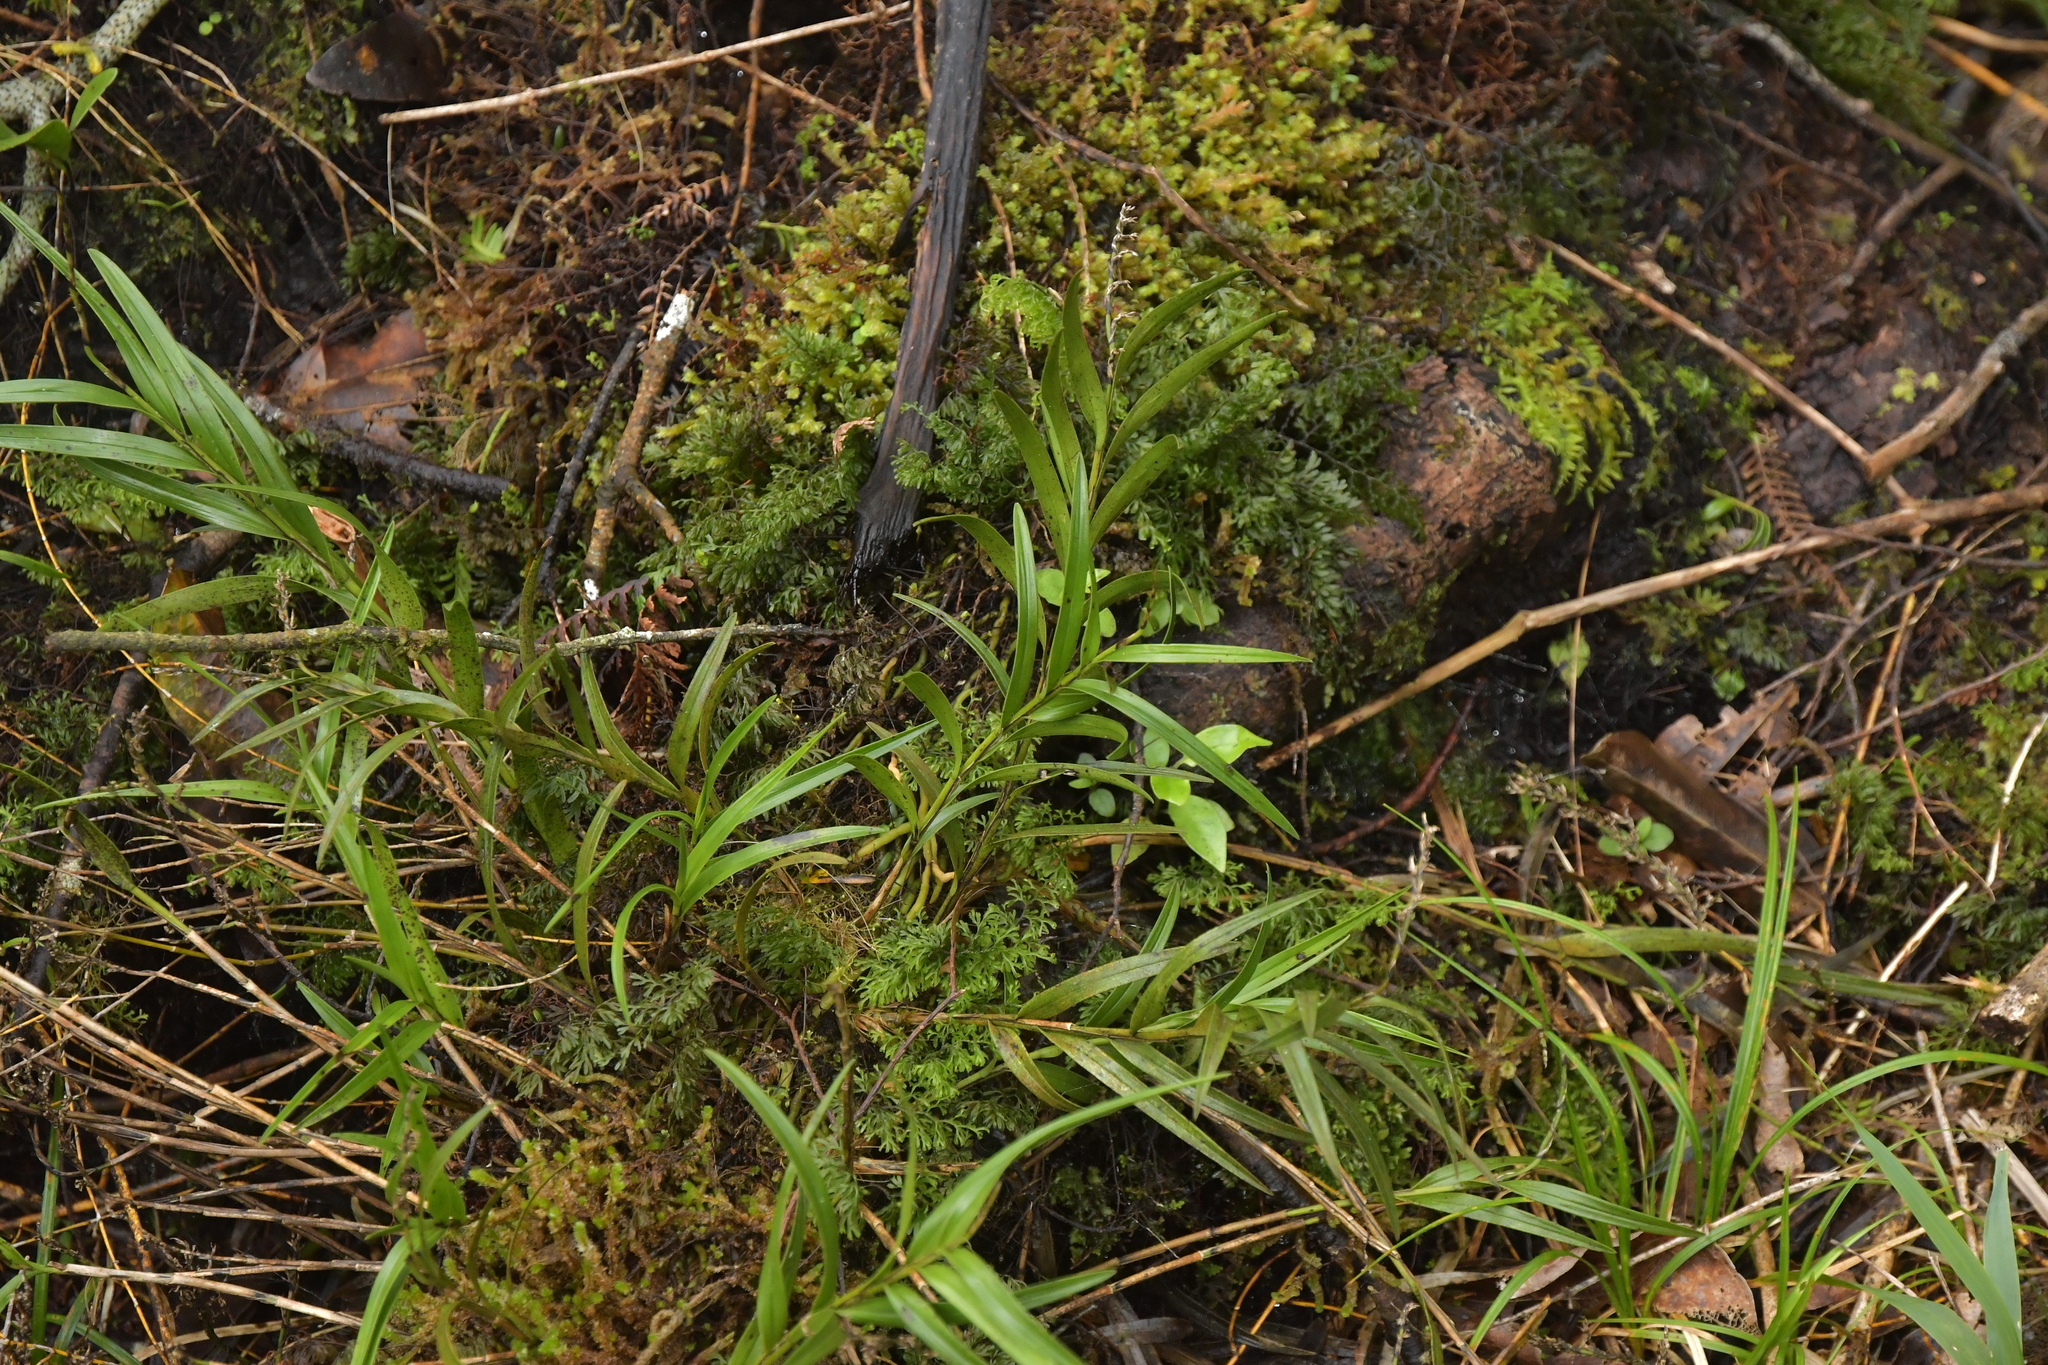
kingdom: Plantae
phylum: Tracheophyta
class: Liliopsida
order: Asparagales
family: Orchidaceae
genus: Earina
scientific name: Earina autumnalis
